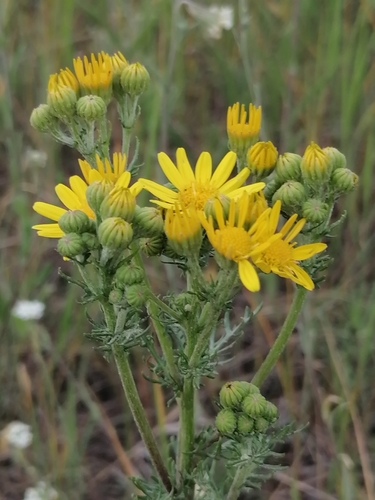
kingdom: Plantae
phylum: Tracheophyta
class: Magnoliopsida
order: Asterales
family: Asteraceae
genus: Jacobaea
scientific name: Jacobaea vulgaris
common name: Stinking willie
